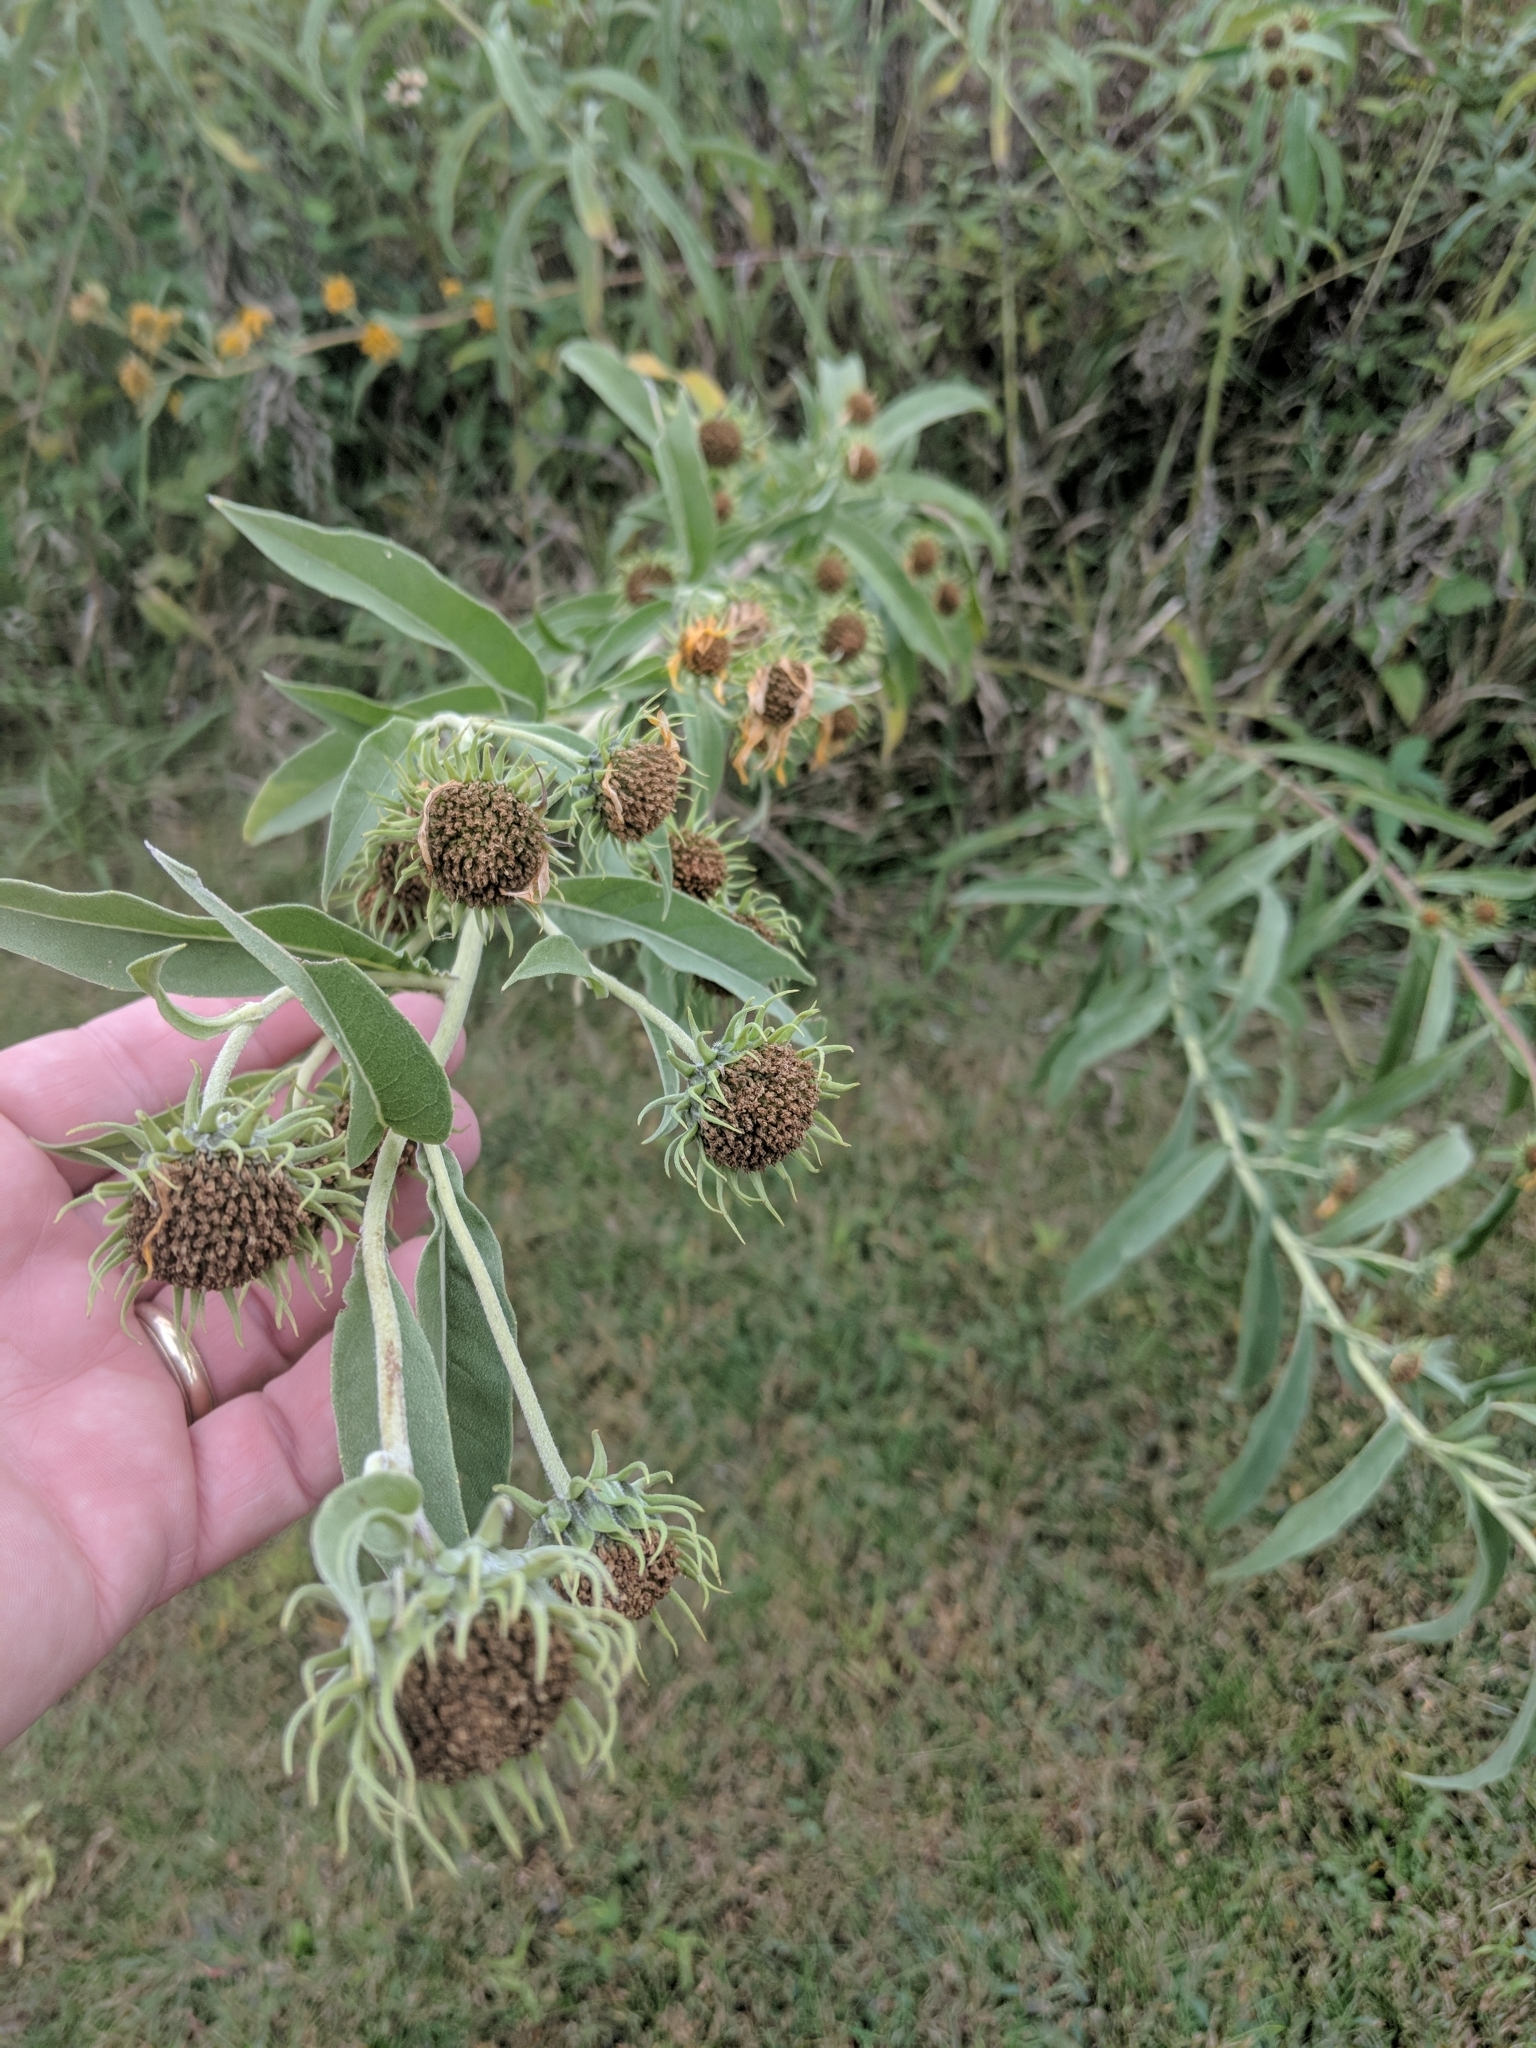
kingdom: Plantae
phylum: Tracheophyta
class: Magnoliopsida
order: Asterales
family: Asteraceae
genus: Helianthus
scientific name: Helianthus maximiliani
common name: Maximilian's sunflower
